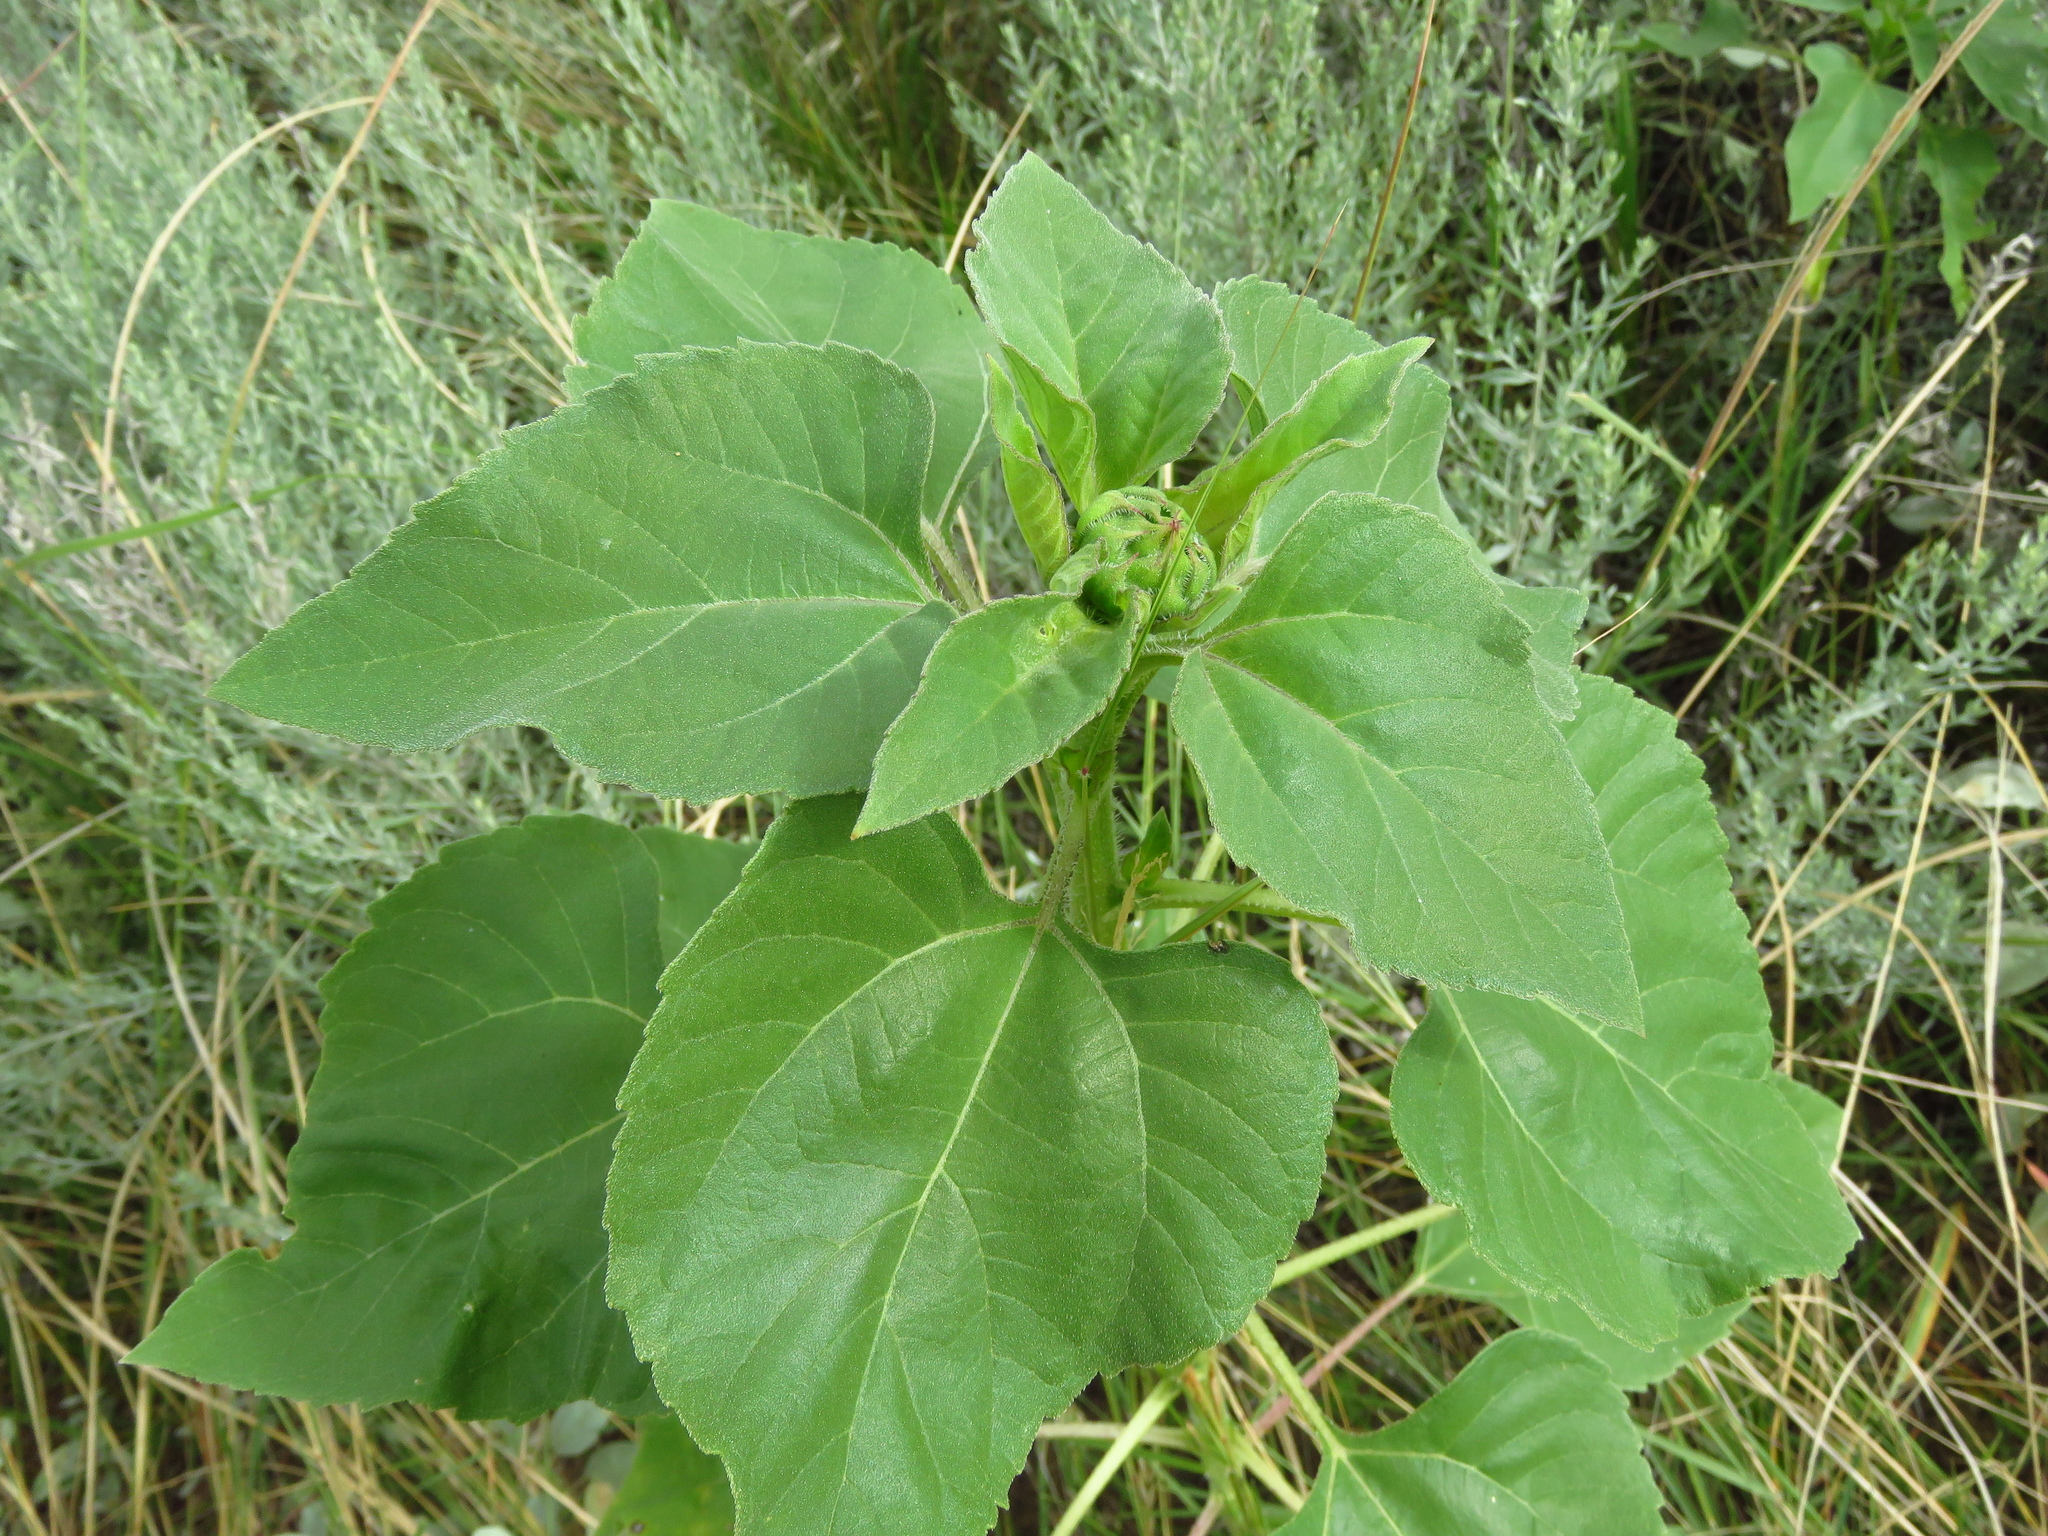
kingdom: Plantae
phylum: Tracheophyta
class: Magnoliopsida
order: Asterales
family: Asteraceae
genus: Helianthus
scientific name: Helianthus annuus
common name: Sunflower
